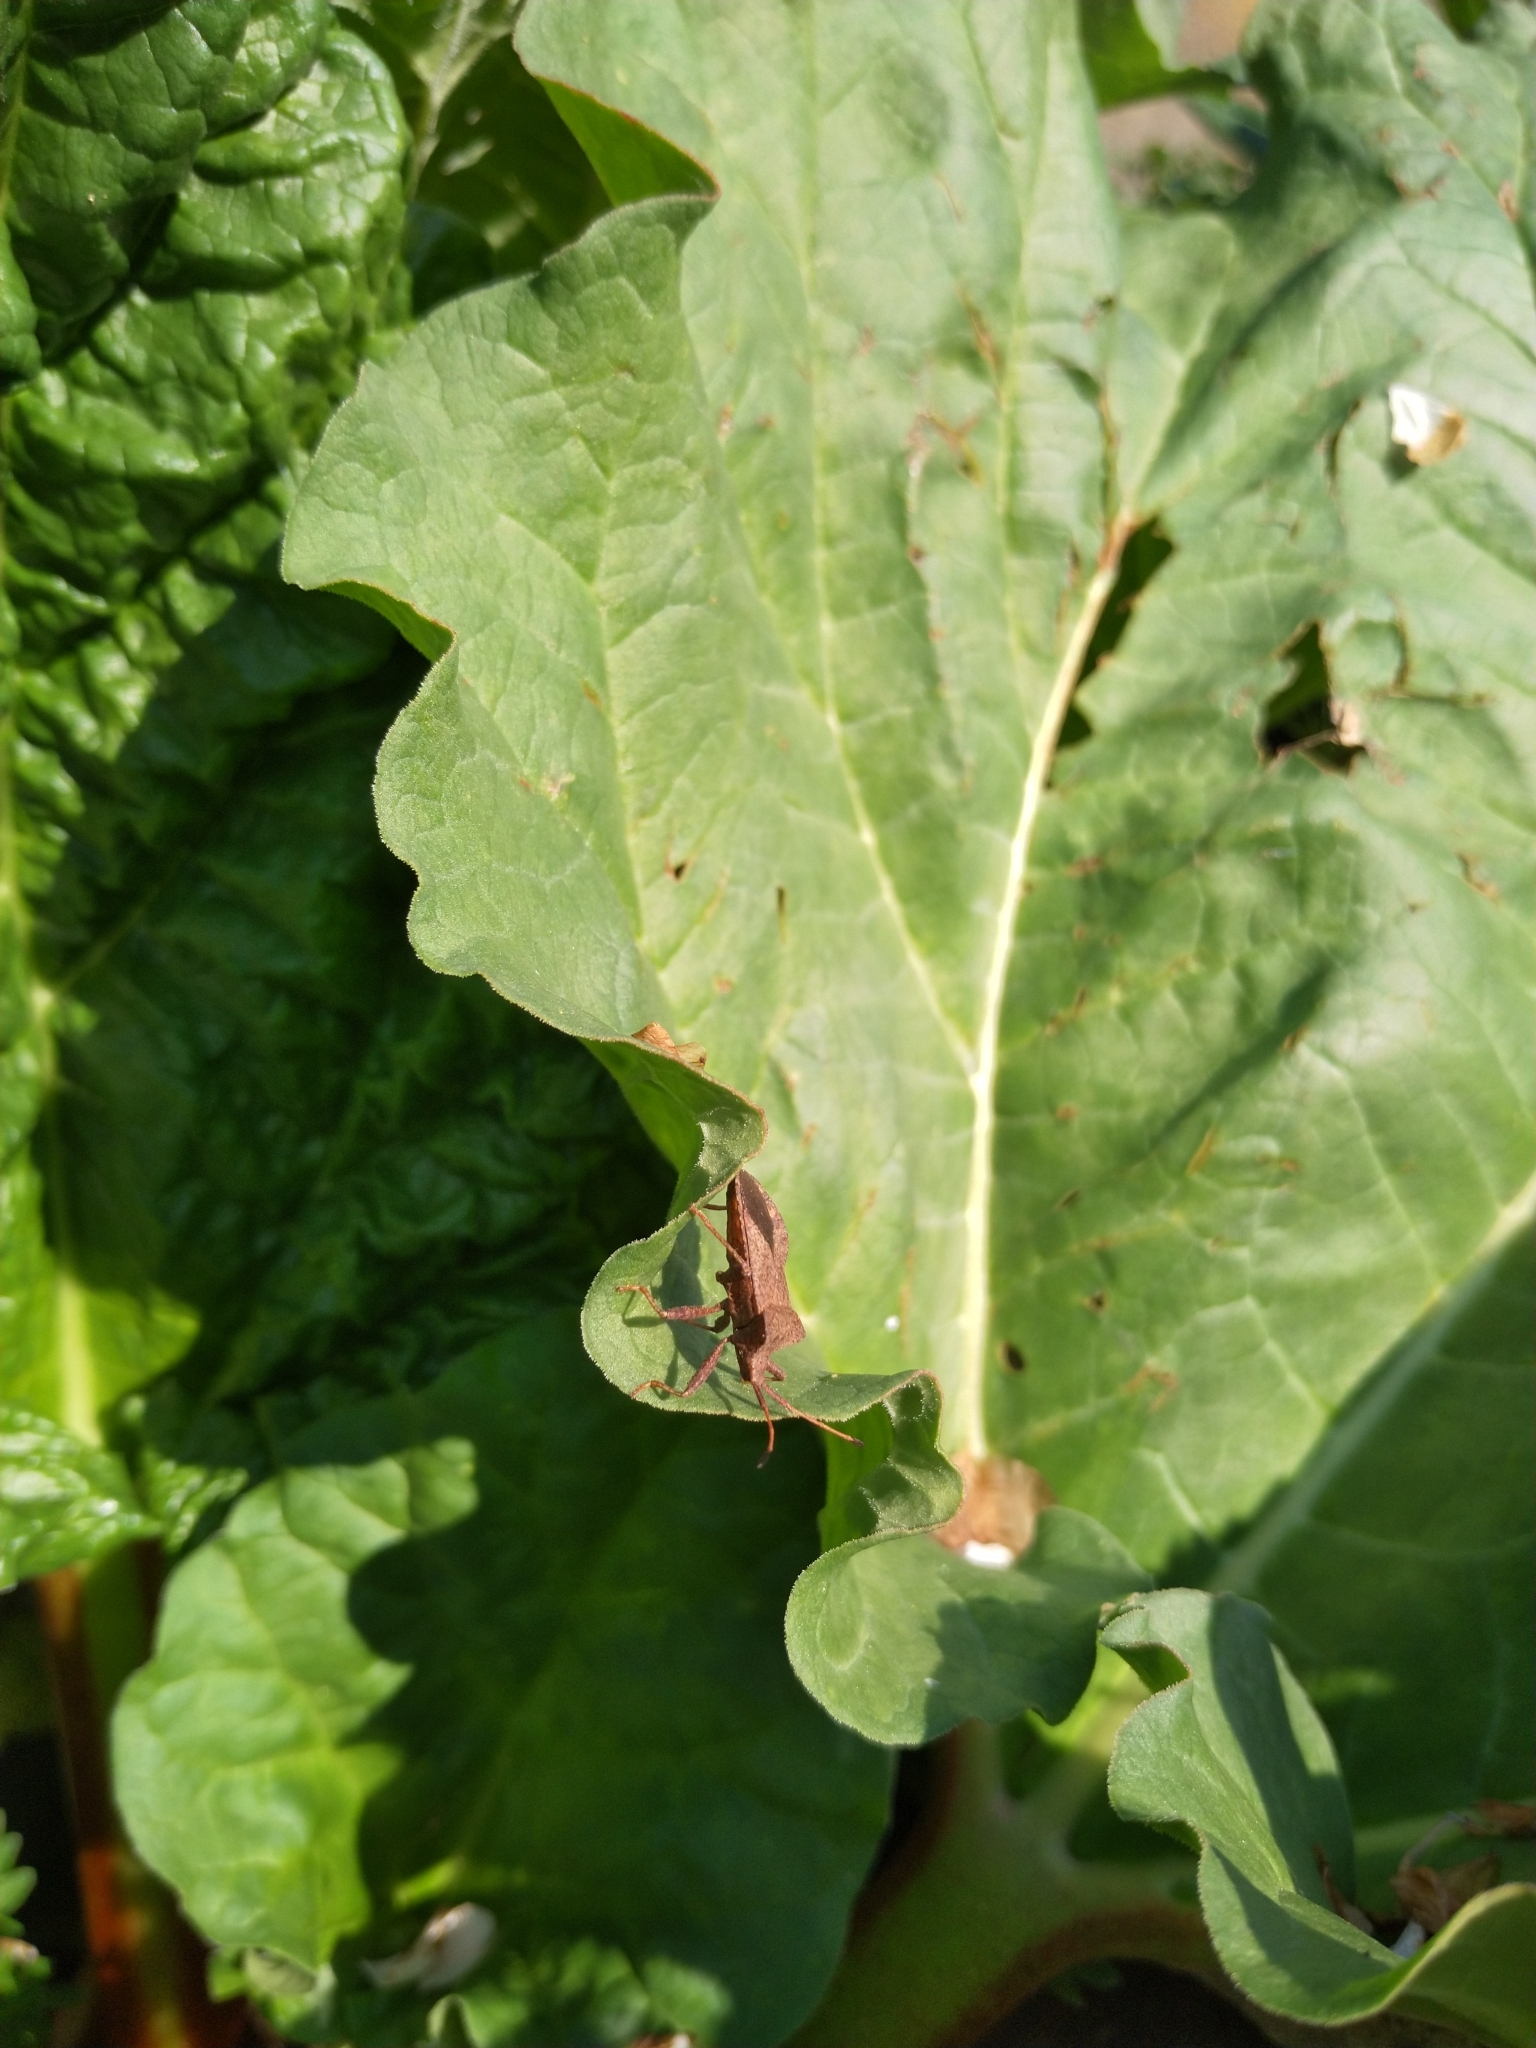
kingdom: Animalia
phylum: Arthropoda
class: Insecta
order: Hemiptera
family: Coreidae
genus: Coreus
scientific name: Coreus marginatus
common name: Dock bug
